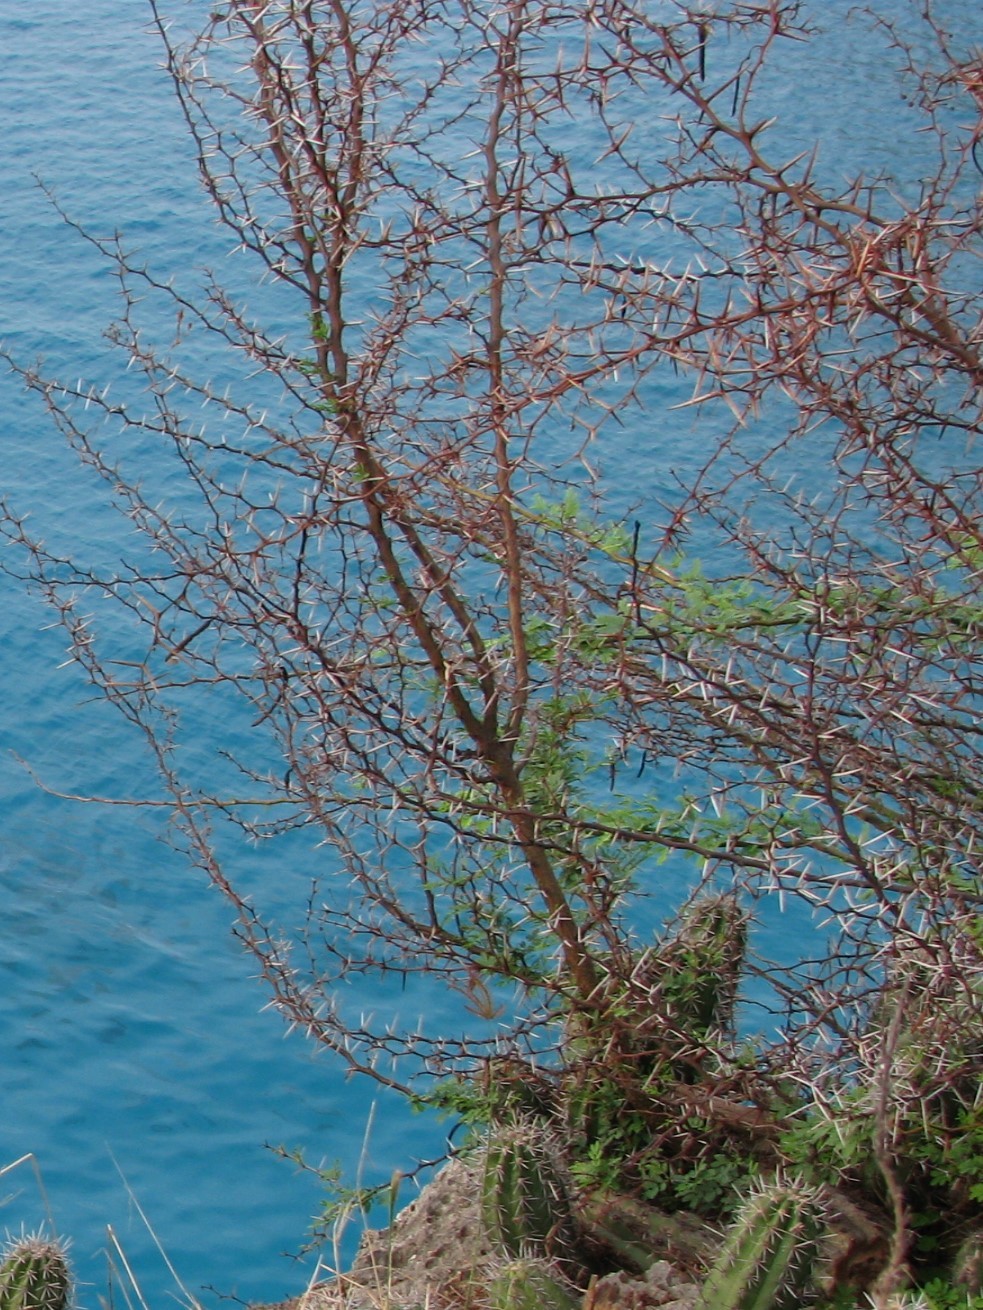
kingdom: Plantae
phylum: Tracheophyta
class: Magnoliopsida
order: Fabales
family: Fabaceae
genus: Vachellia
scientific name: Vachellia tortuosa
